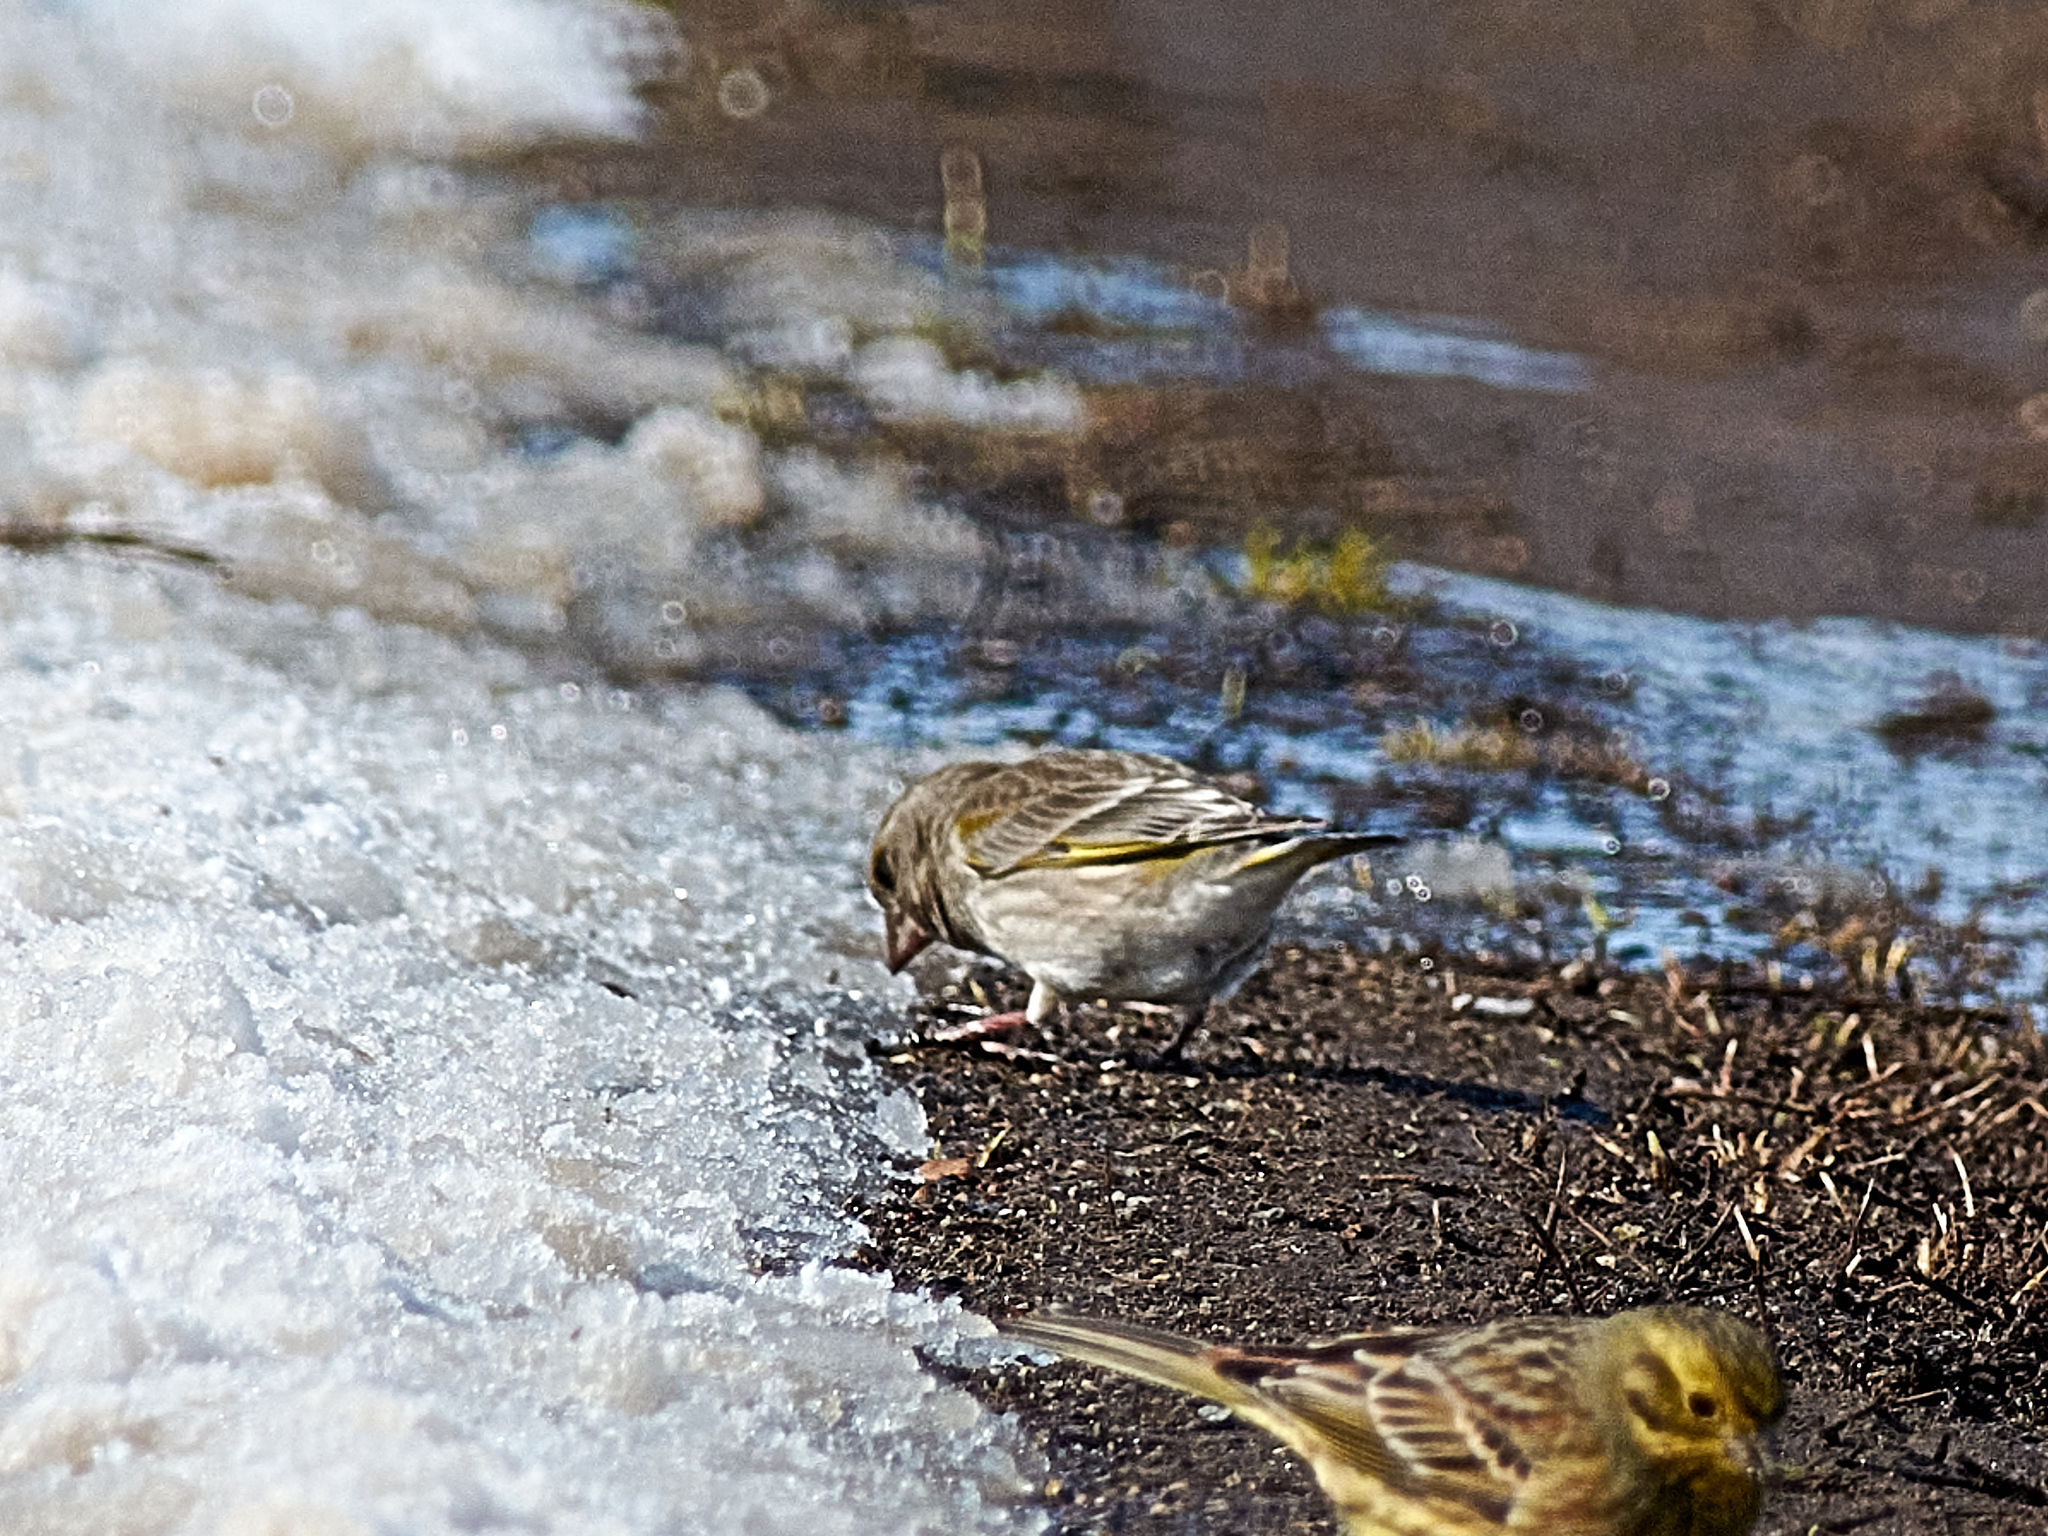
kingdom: Plantae
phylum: Tracheophyta
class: Liliopsida
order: Poales
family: Poaceae
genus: Chloris
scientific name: Chloris chloris
